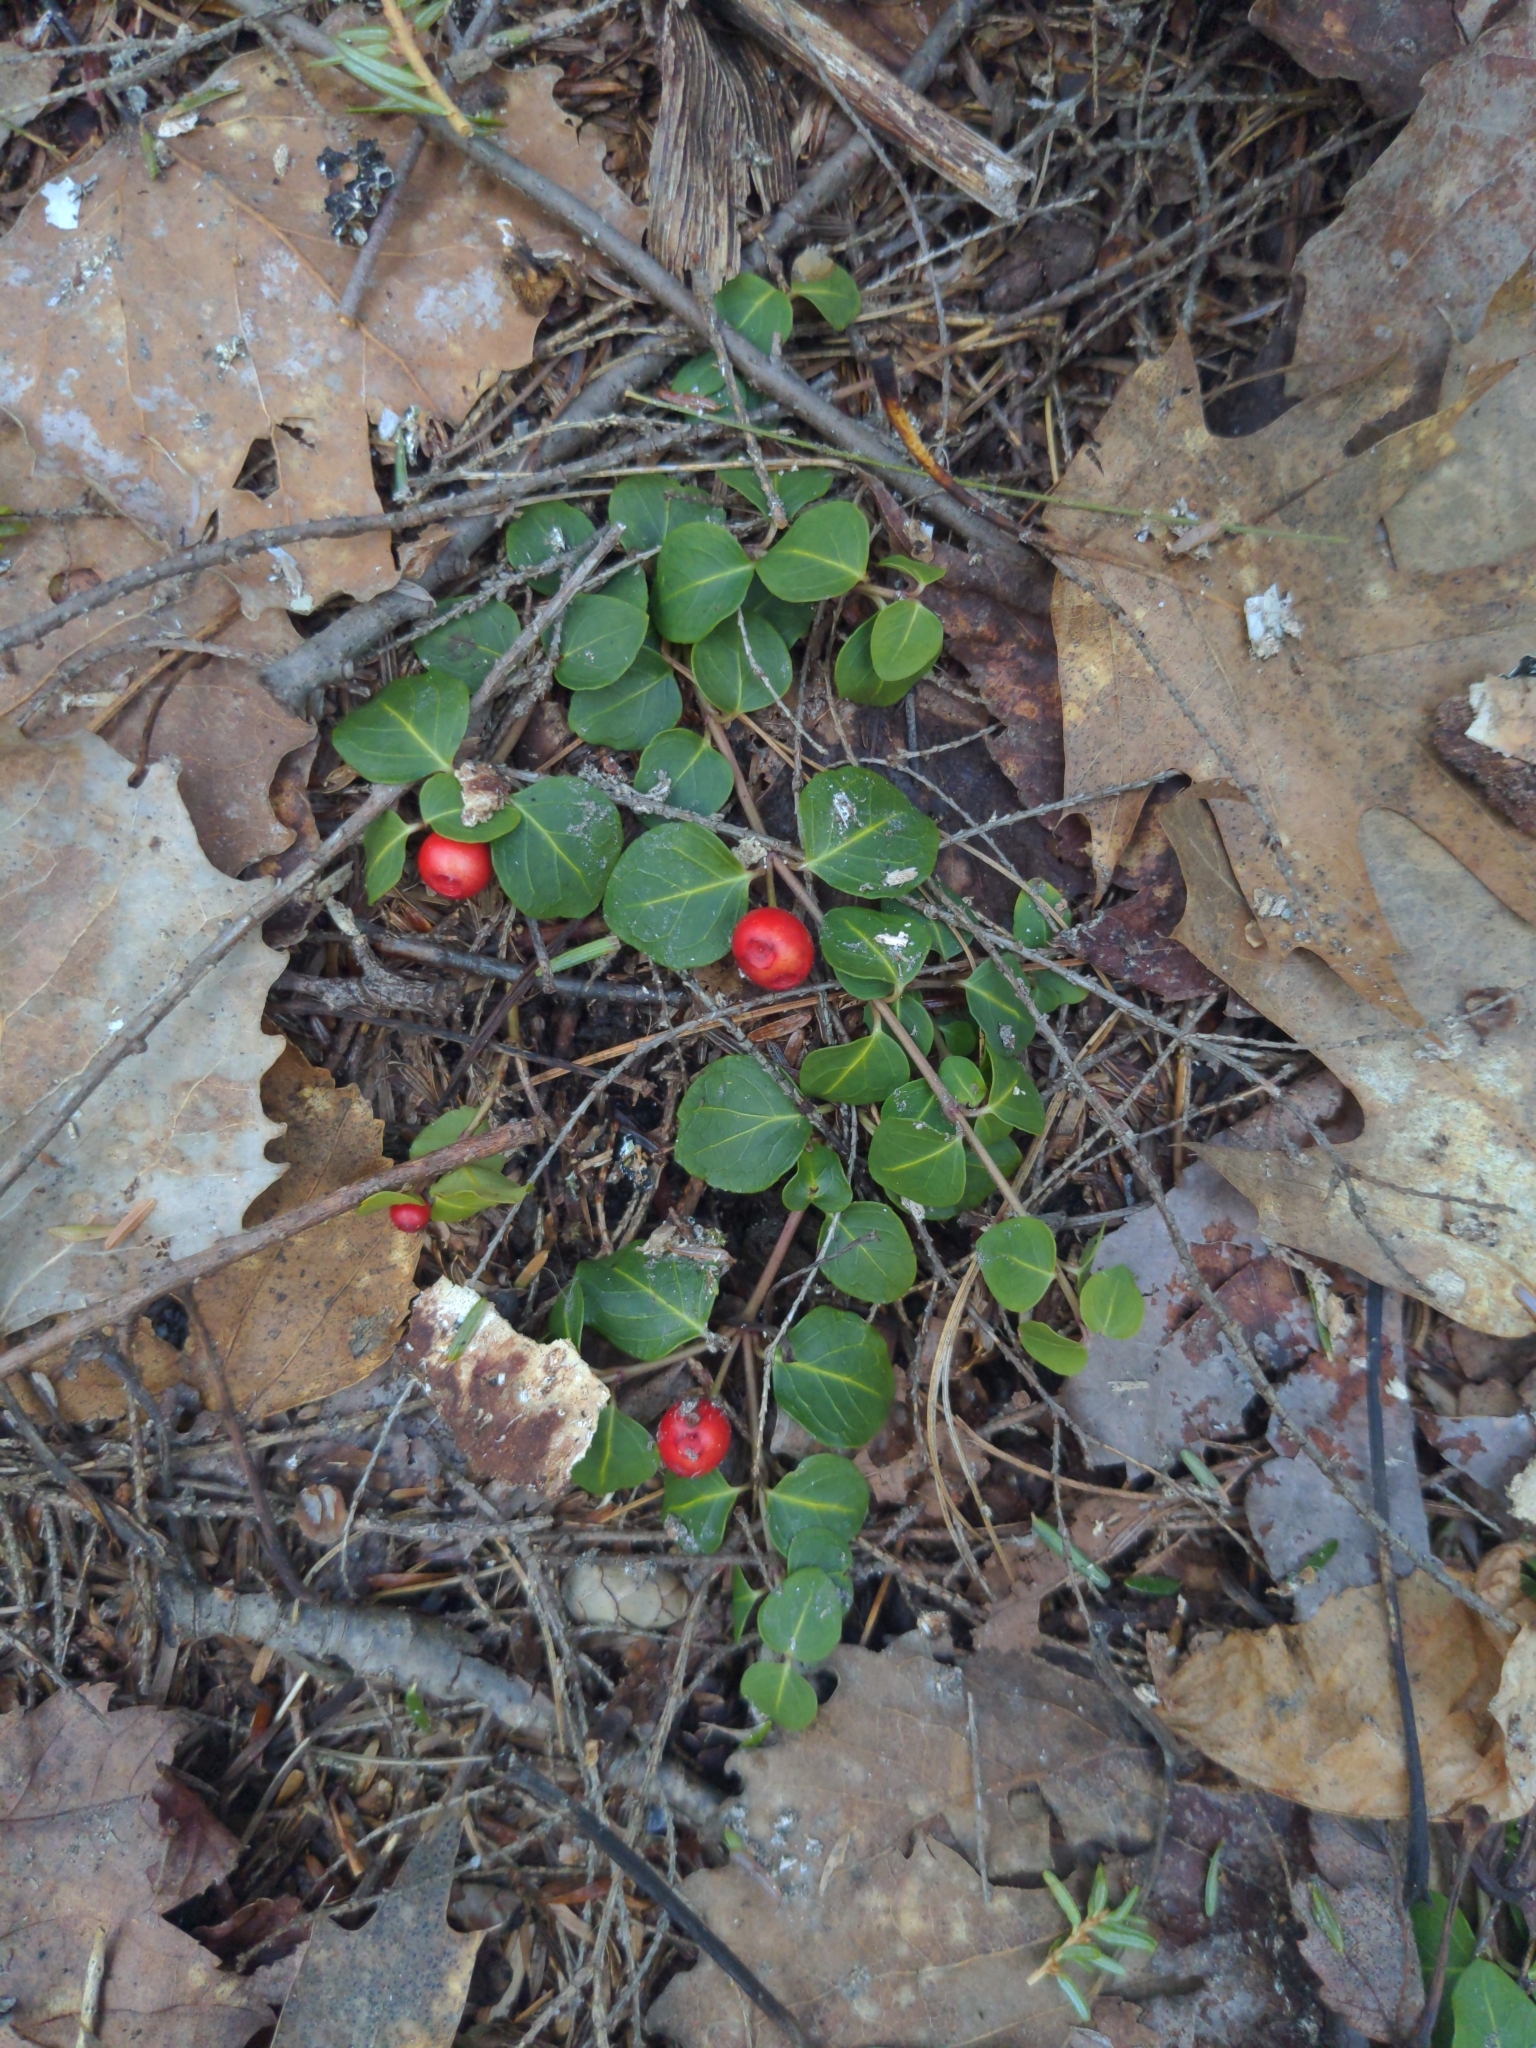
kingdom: Plantae
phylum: Tracheophyta
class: Magnoliopsida
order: Gentianales
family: Rubiaceae
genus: Mitchella
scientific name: Mitchella repens
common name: Partridge-berry
